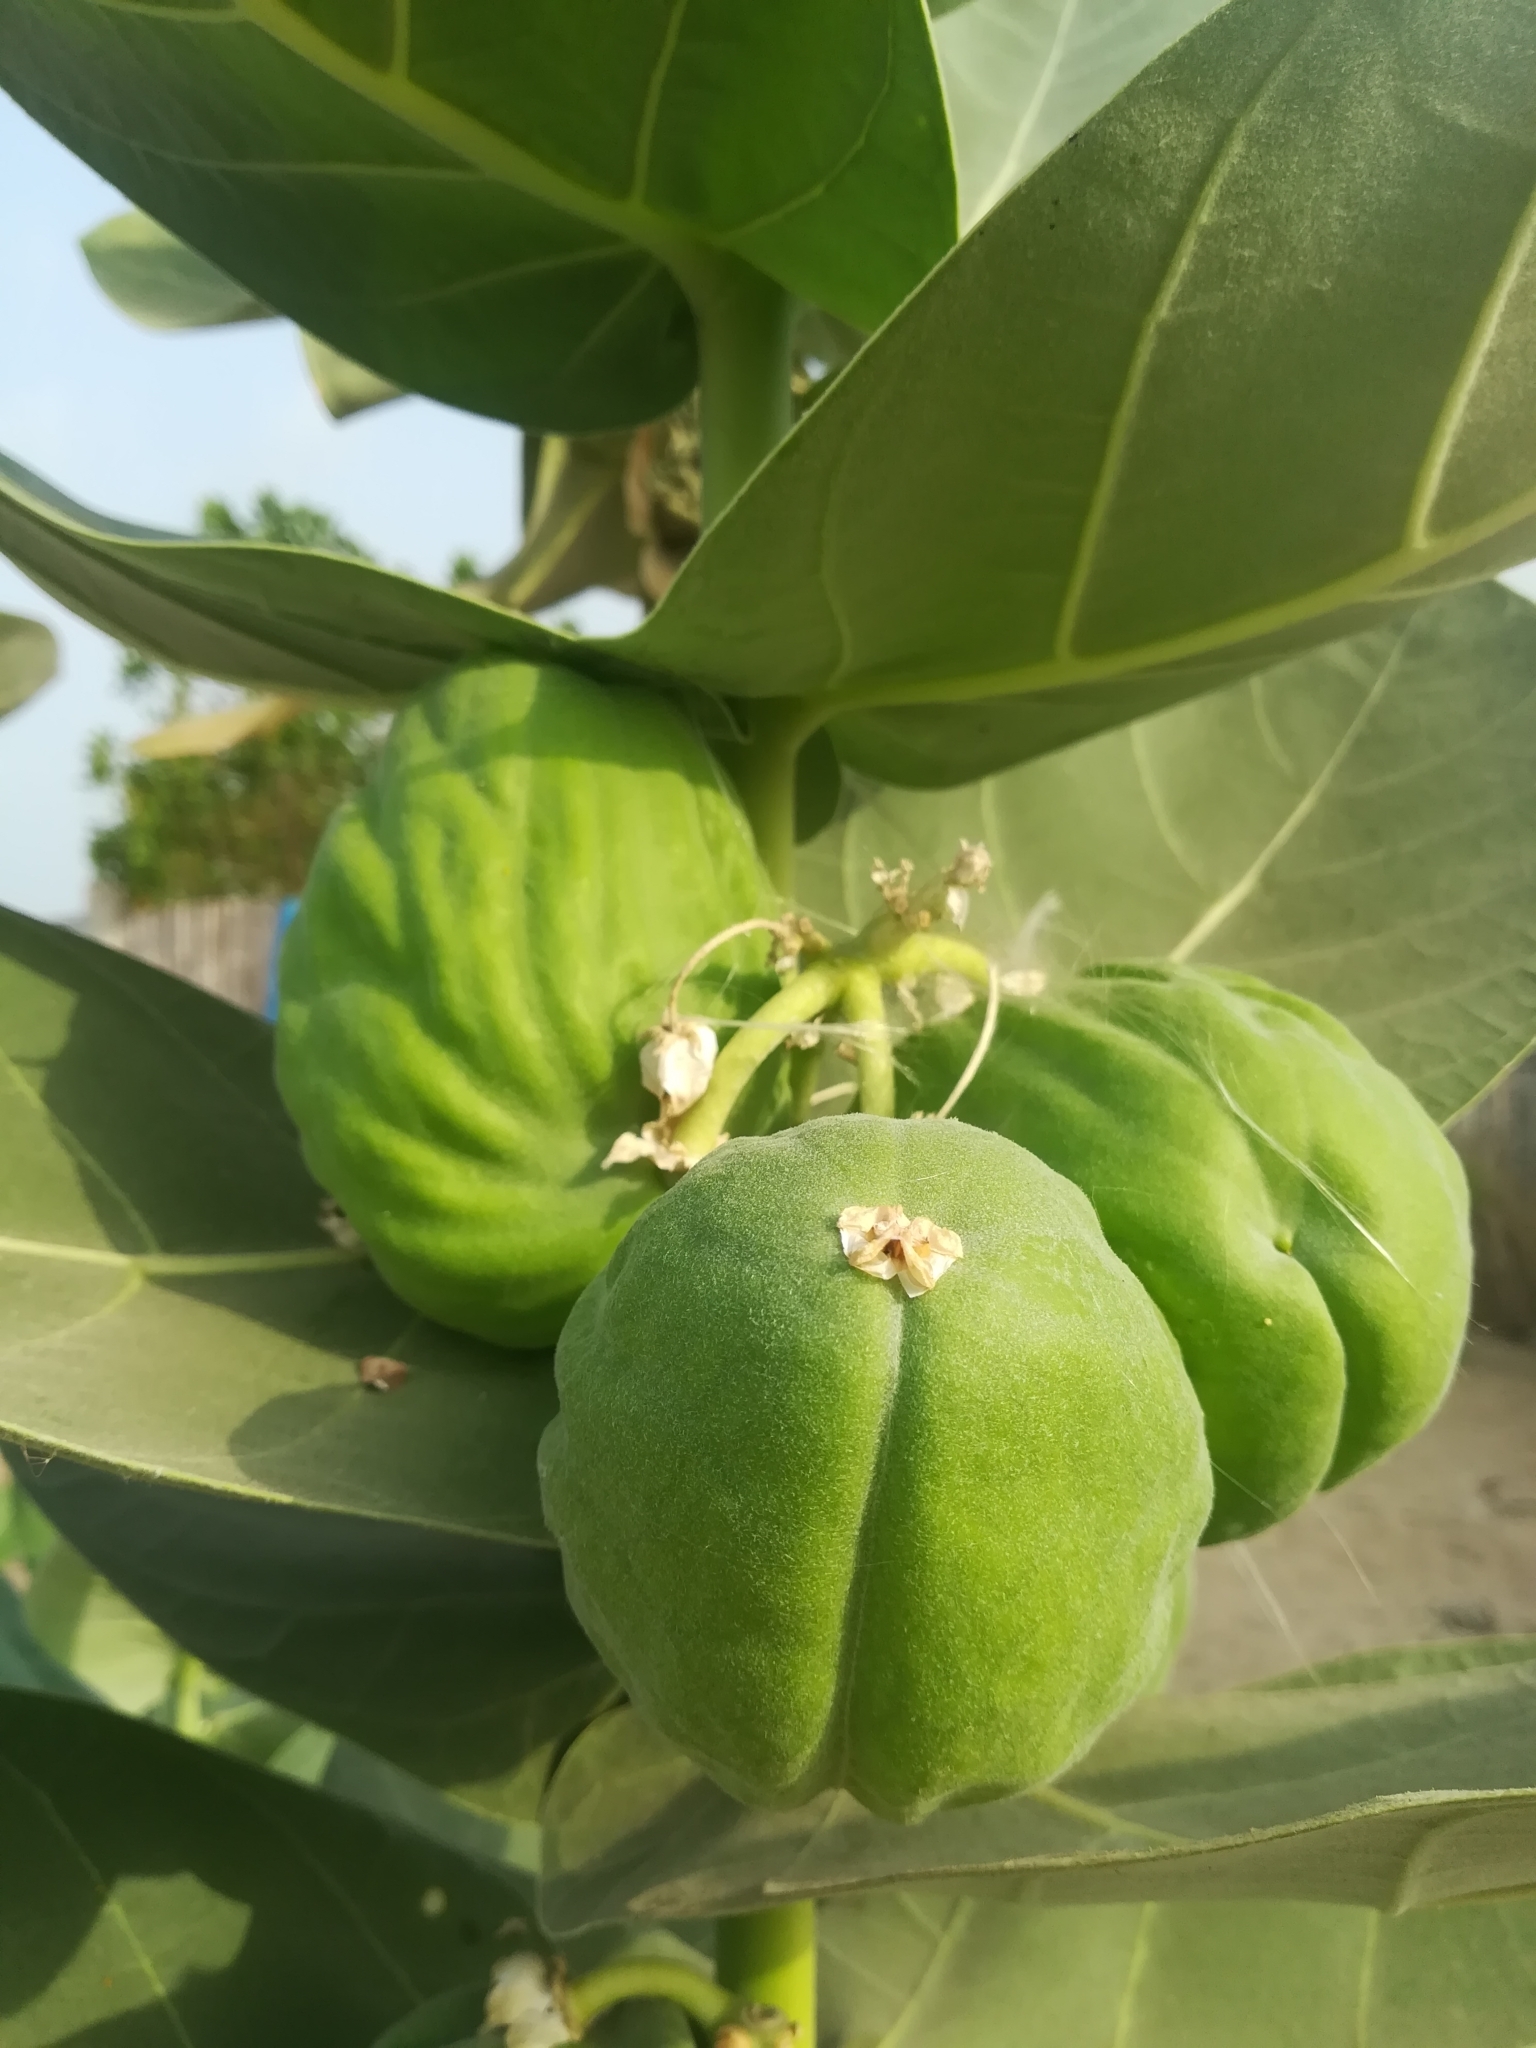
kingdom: Plantae
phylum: Tracheophyta
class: Magnoliopsida
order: Gentianales
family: Apocynaceae
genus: Calotropis
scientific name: Calotropis procera
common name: Roostertree
